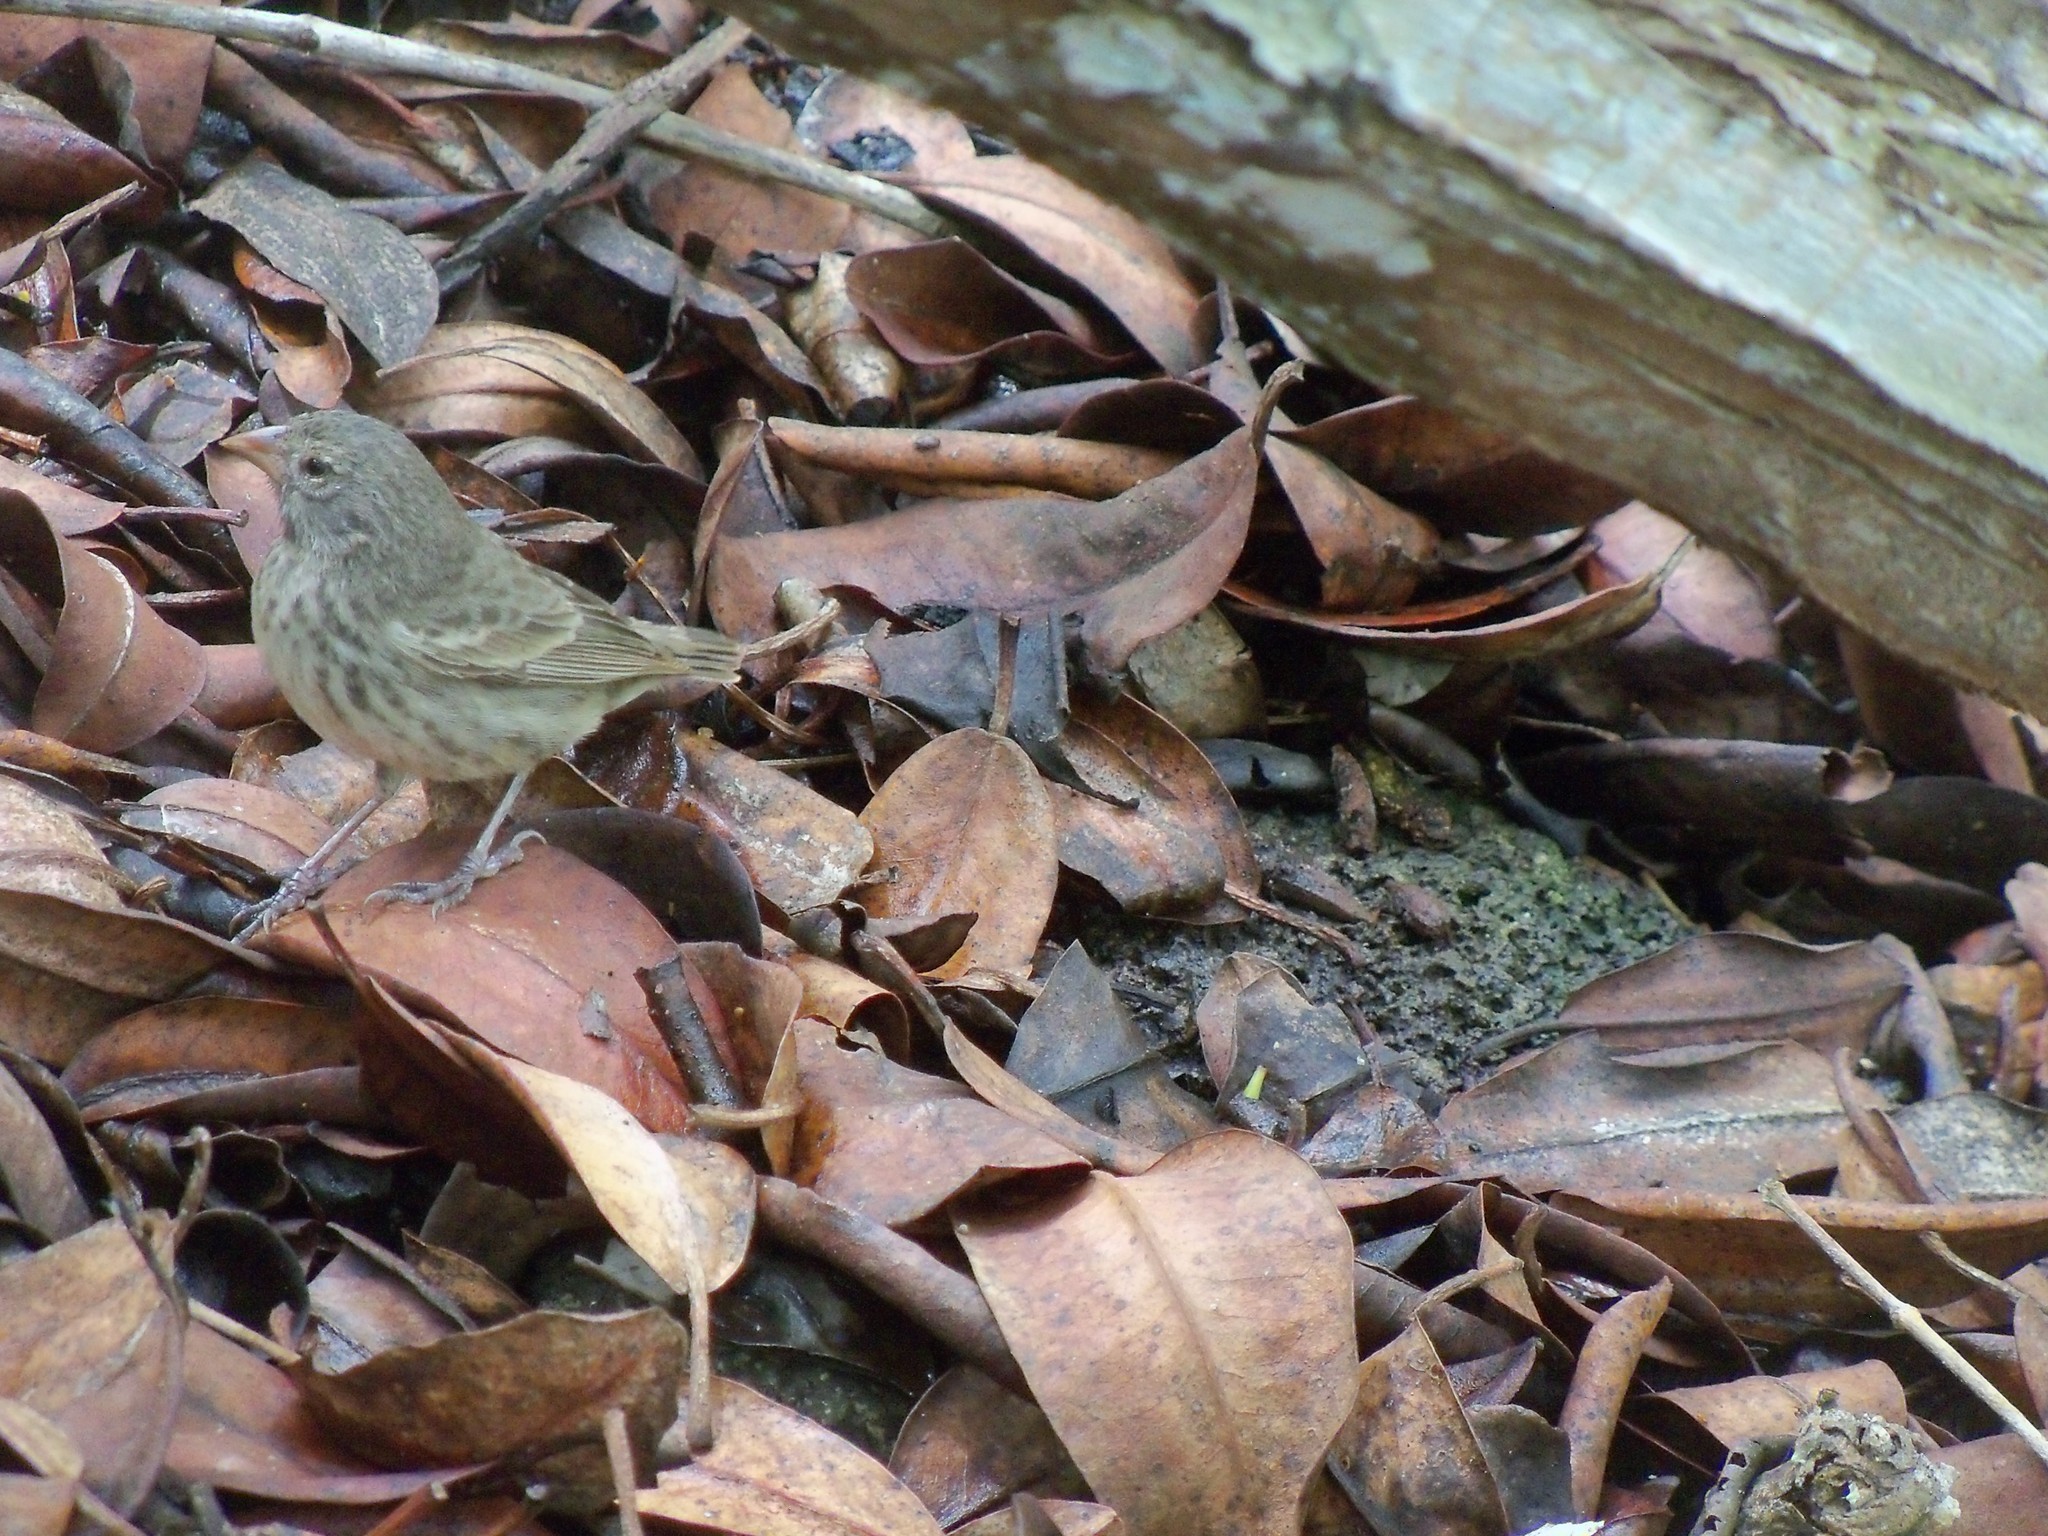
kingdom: Animalia
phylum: Chordata
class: Aves
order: Passeriformes
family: Thraupidae
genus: Geospiza
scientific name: Geospiza fuliginosa
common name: Small ground finch
